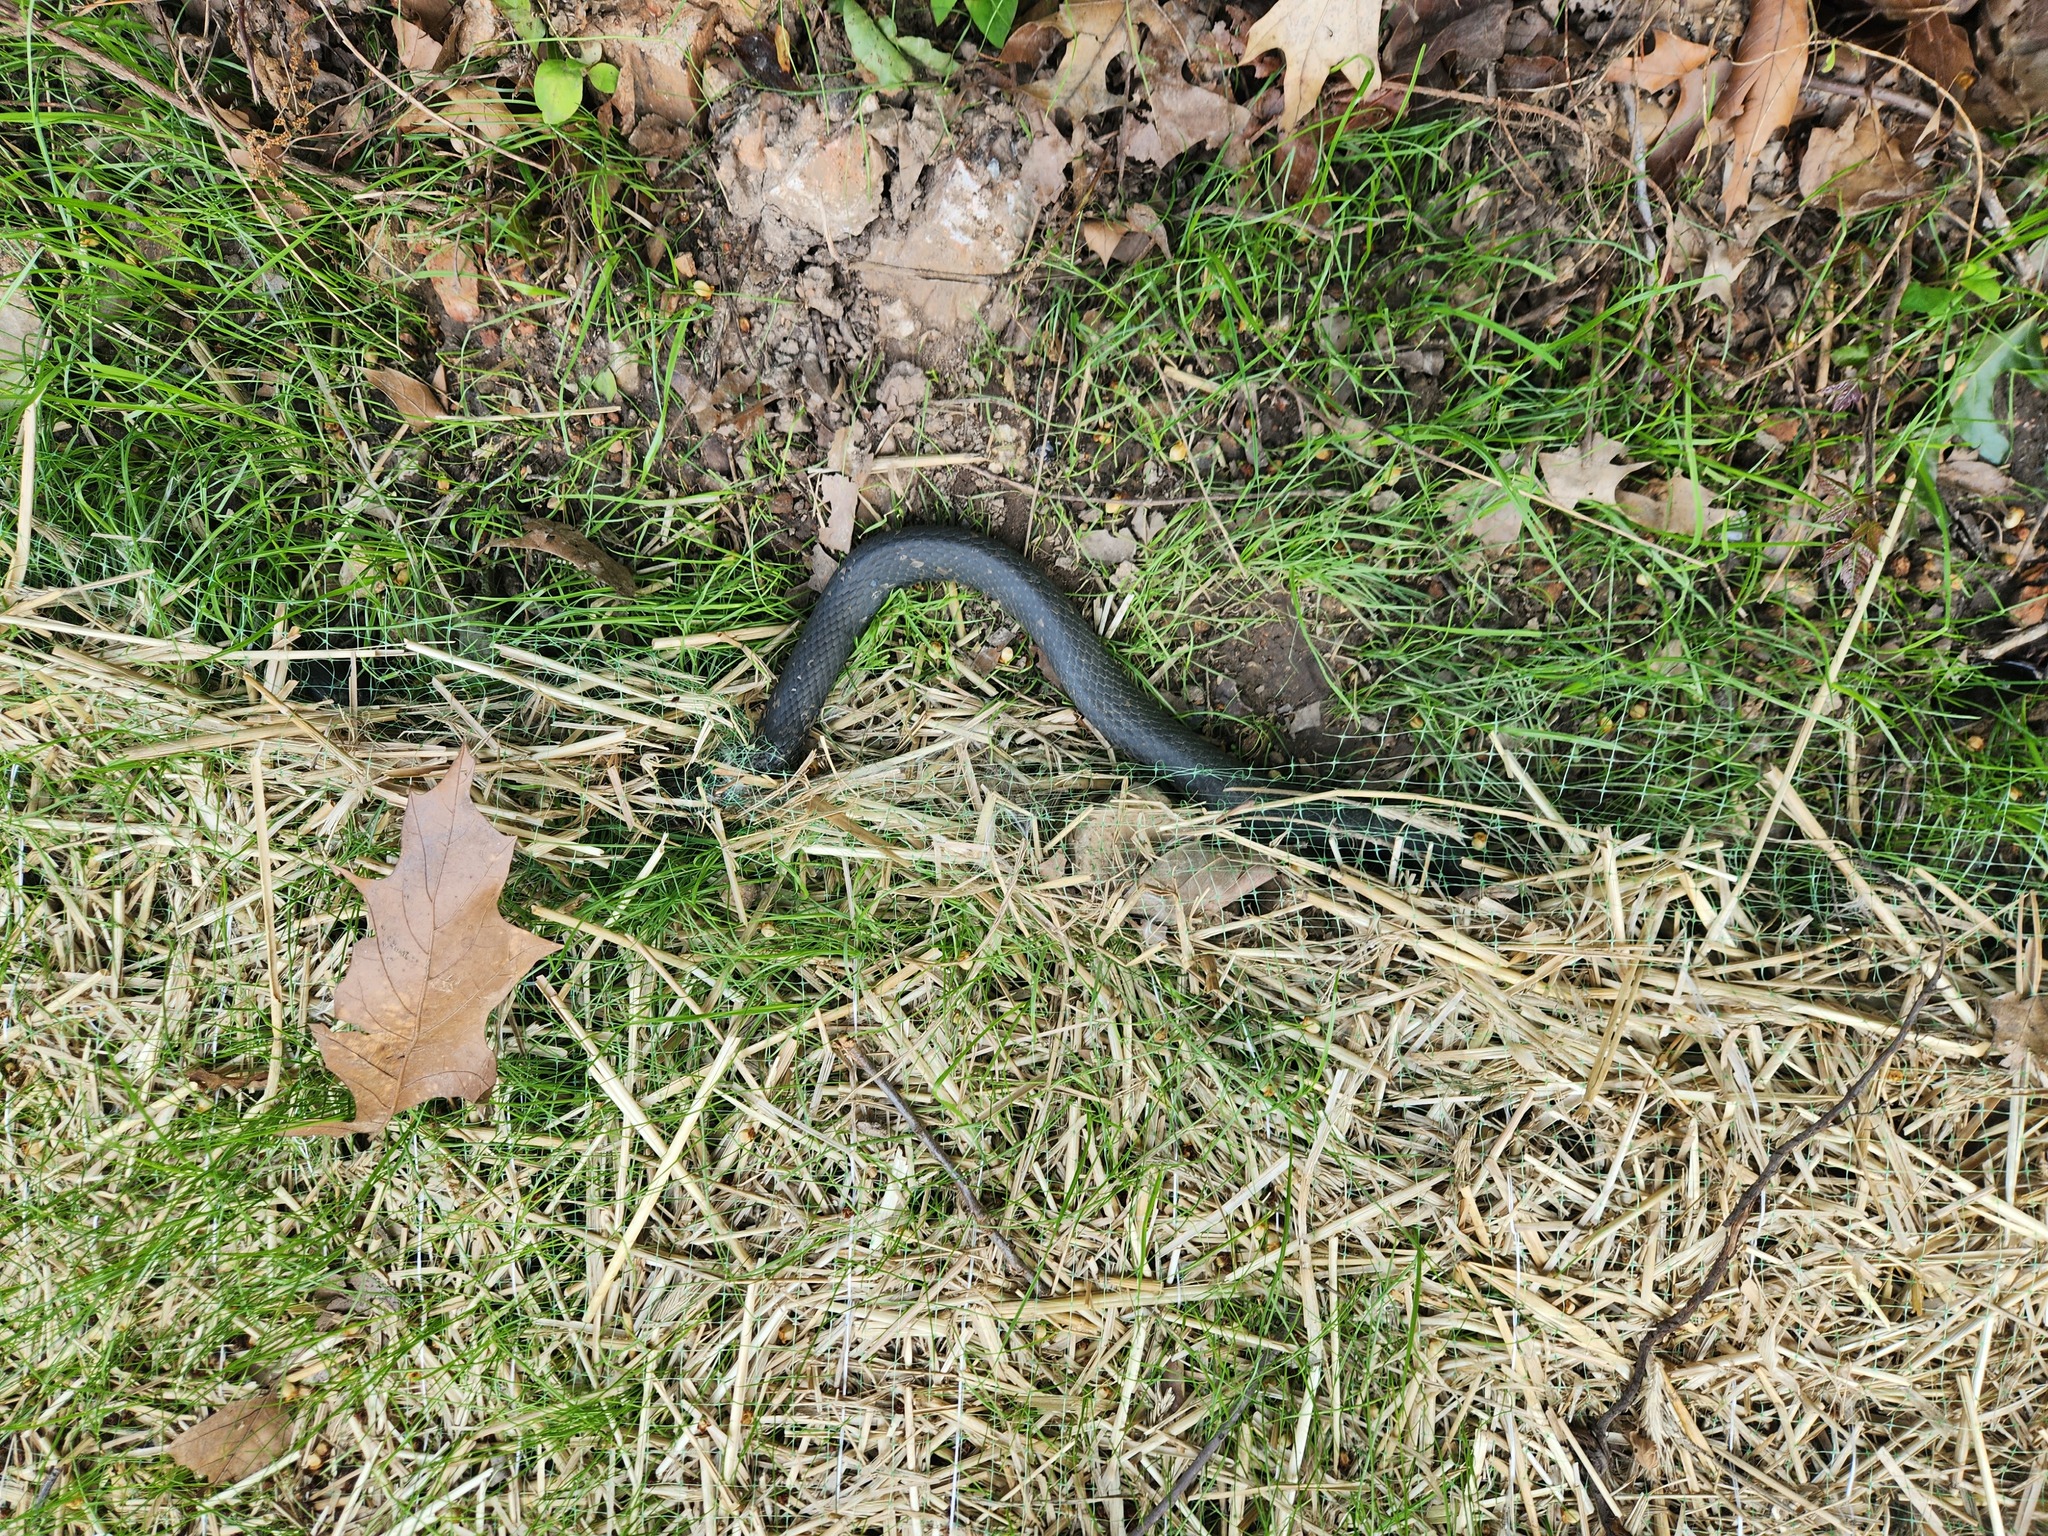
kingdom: Animalia
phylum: Chordata
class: Squamata
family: Colubridae
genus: Coluber
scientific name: Coluber constrictor
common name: Eastern racer
